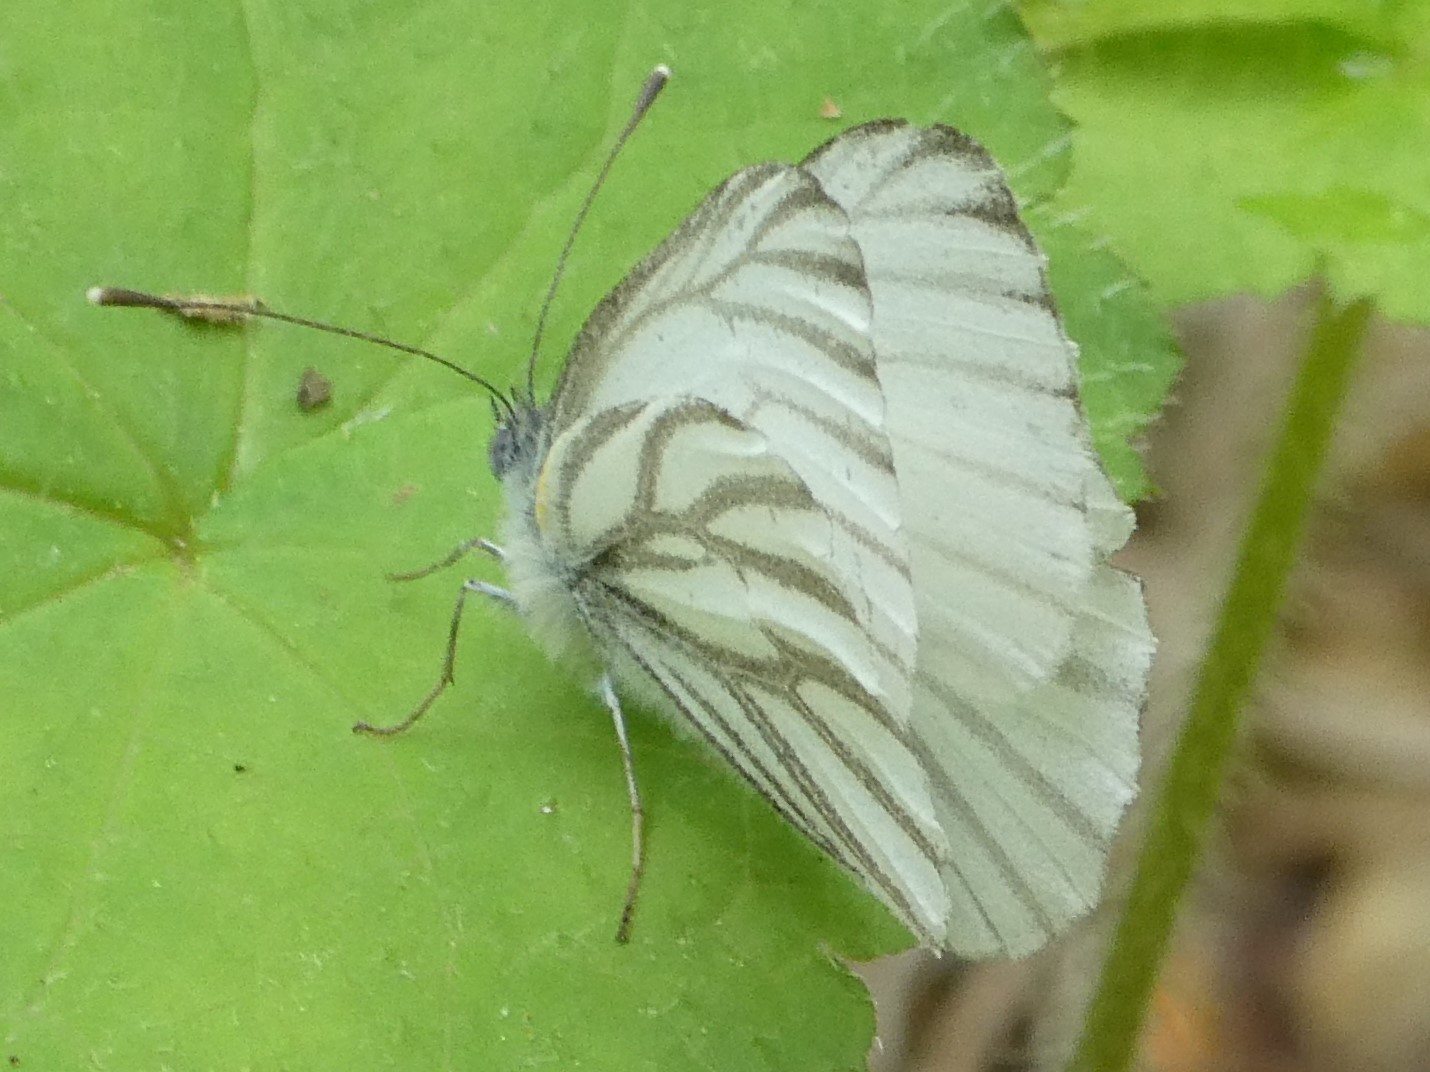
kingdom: Animalia
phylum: Arthropoda
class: Insecta
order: Lepidoptera
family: Pieridae
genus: Pieris
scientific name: Pieris oleracea
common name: Mustard white
